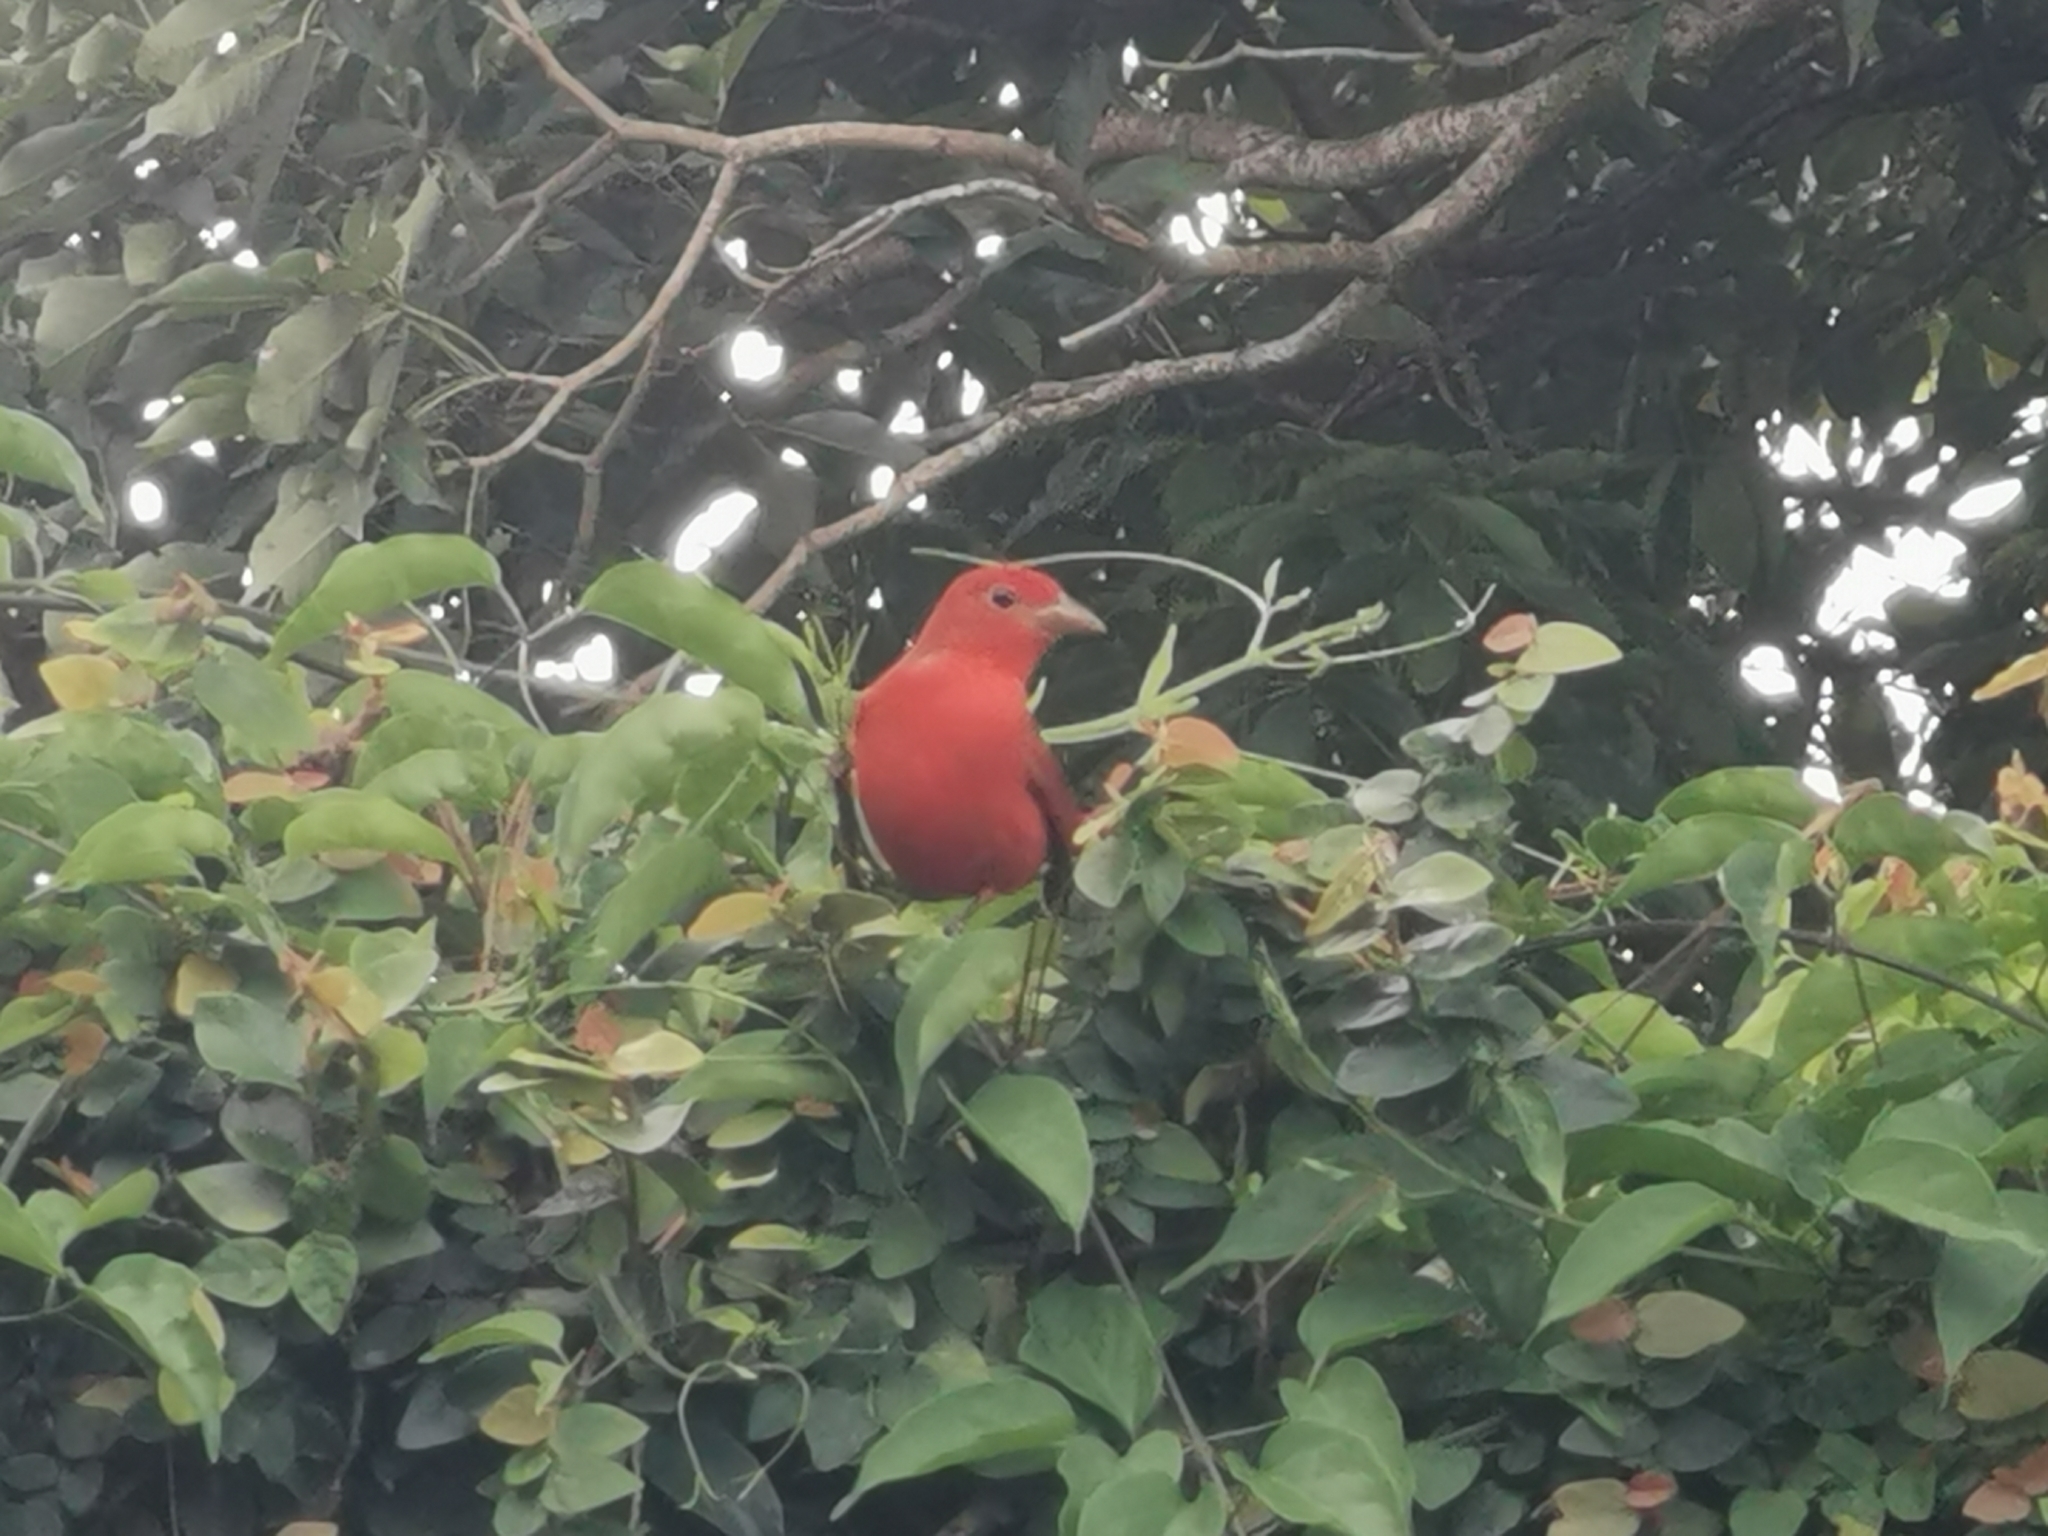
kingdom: Animalia
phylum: Chordata
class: Aves
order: Passeriformes
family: Cardinalidae
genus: Piranga
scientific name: Piranga rubra
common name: Summer tanager
